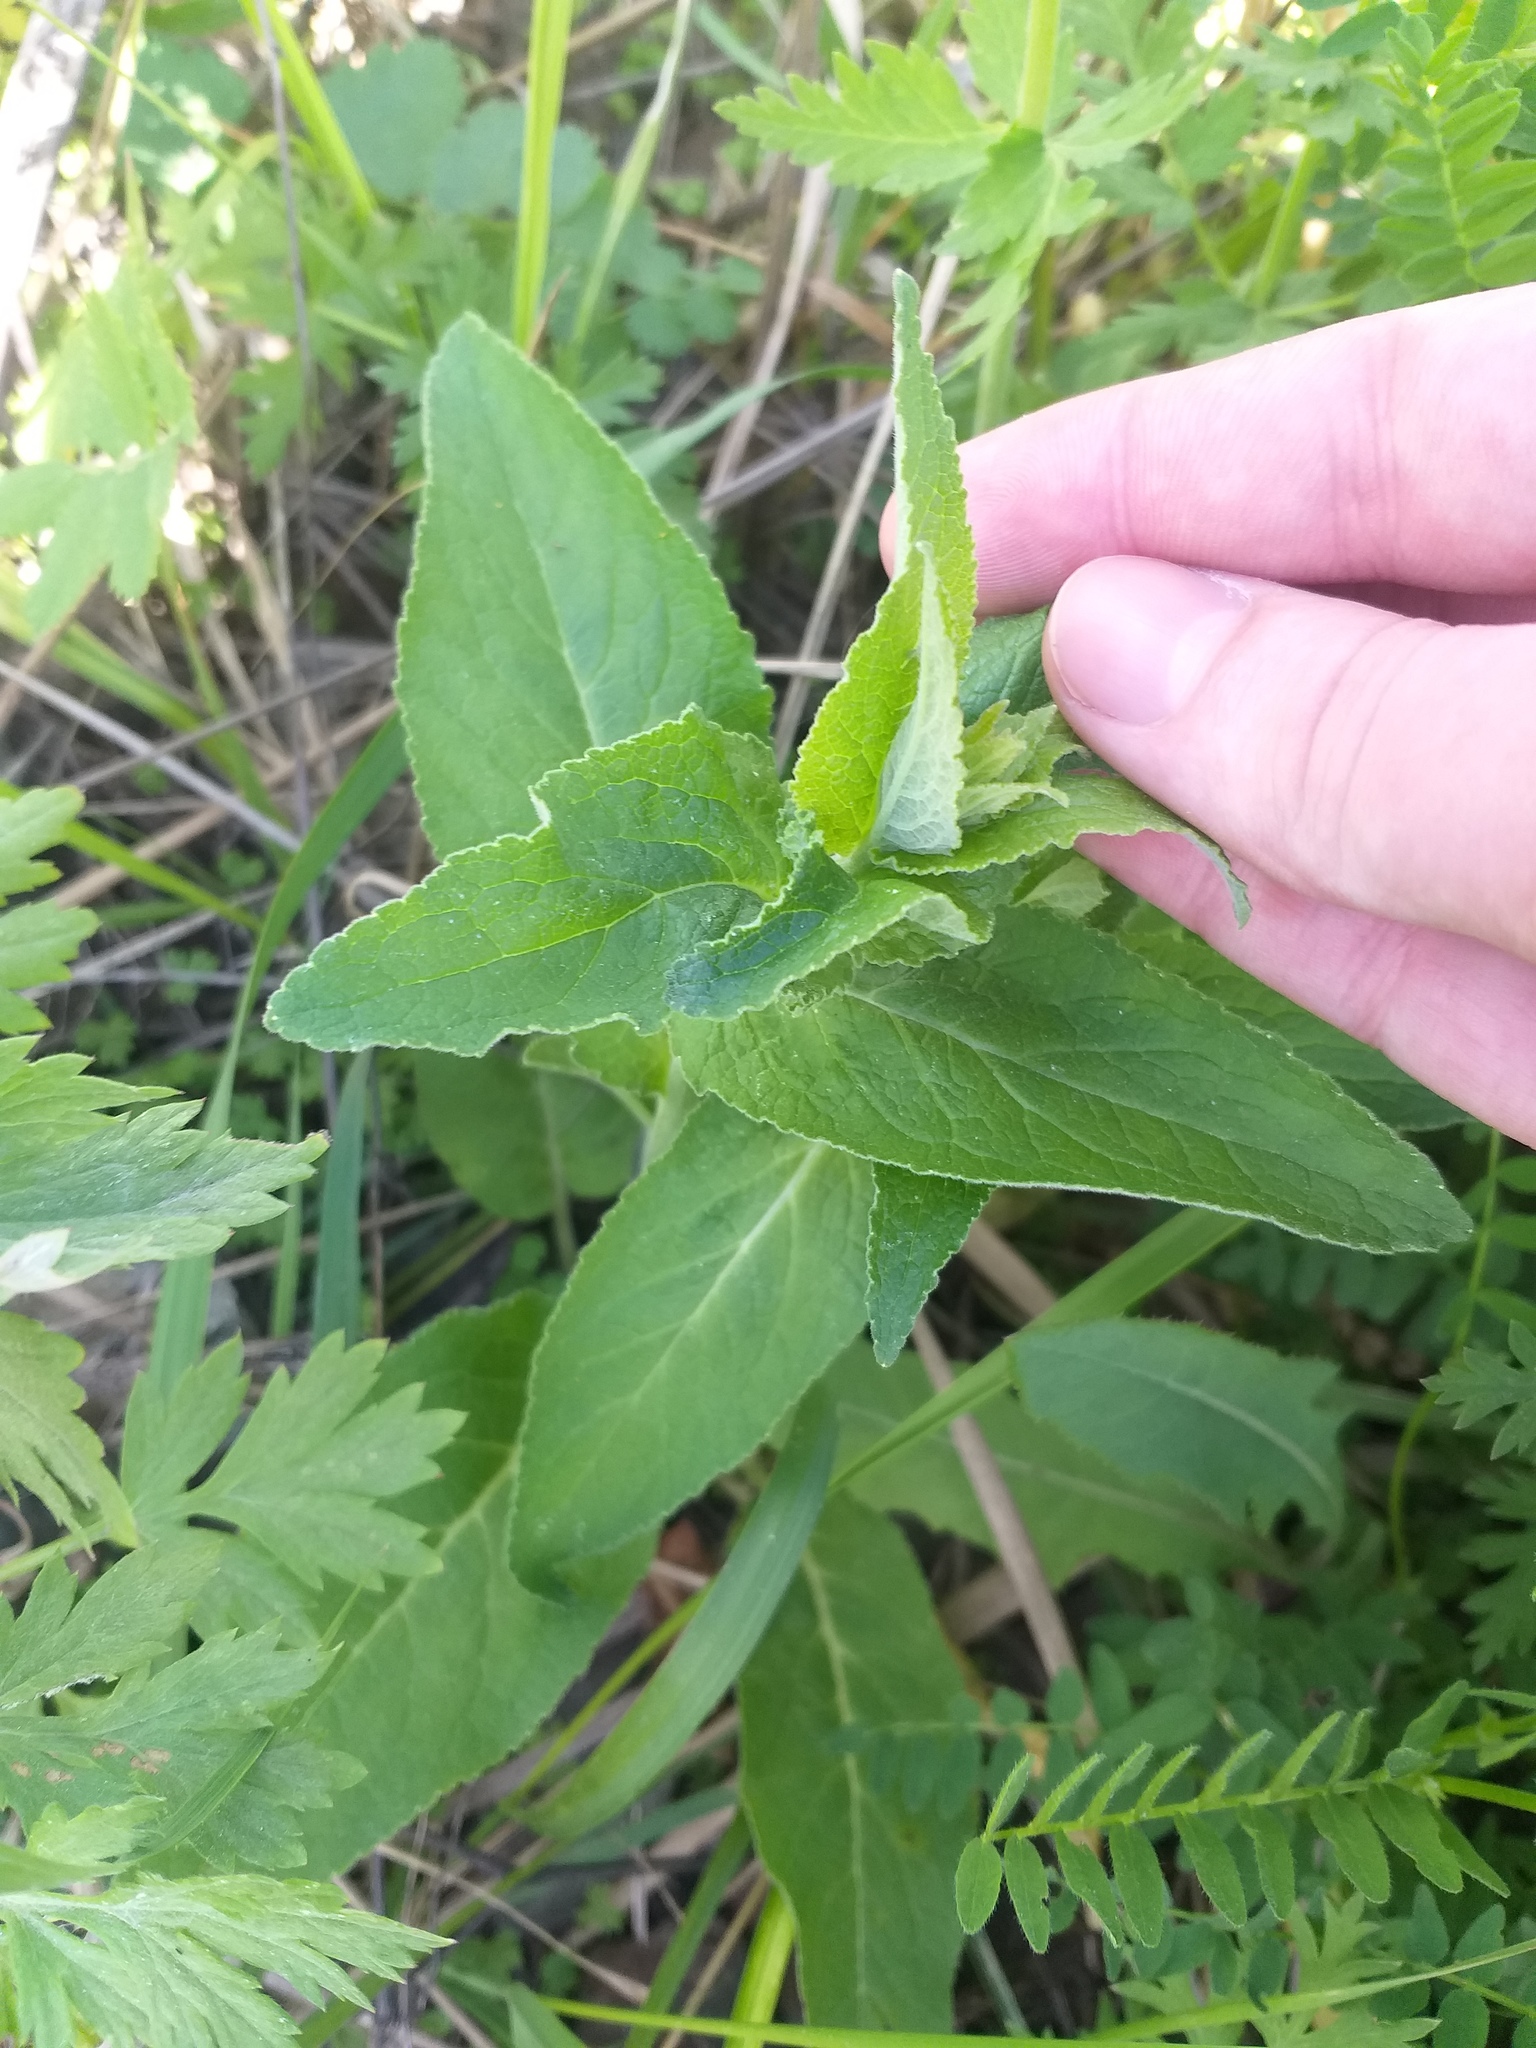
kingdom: Plantae
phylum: Tracheophyta
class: Magnoliopsida
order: Asterales
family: Campanulaceae
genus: Campanula
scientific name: Campanula bononiensis
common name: Pale bellflower
